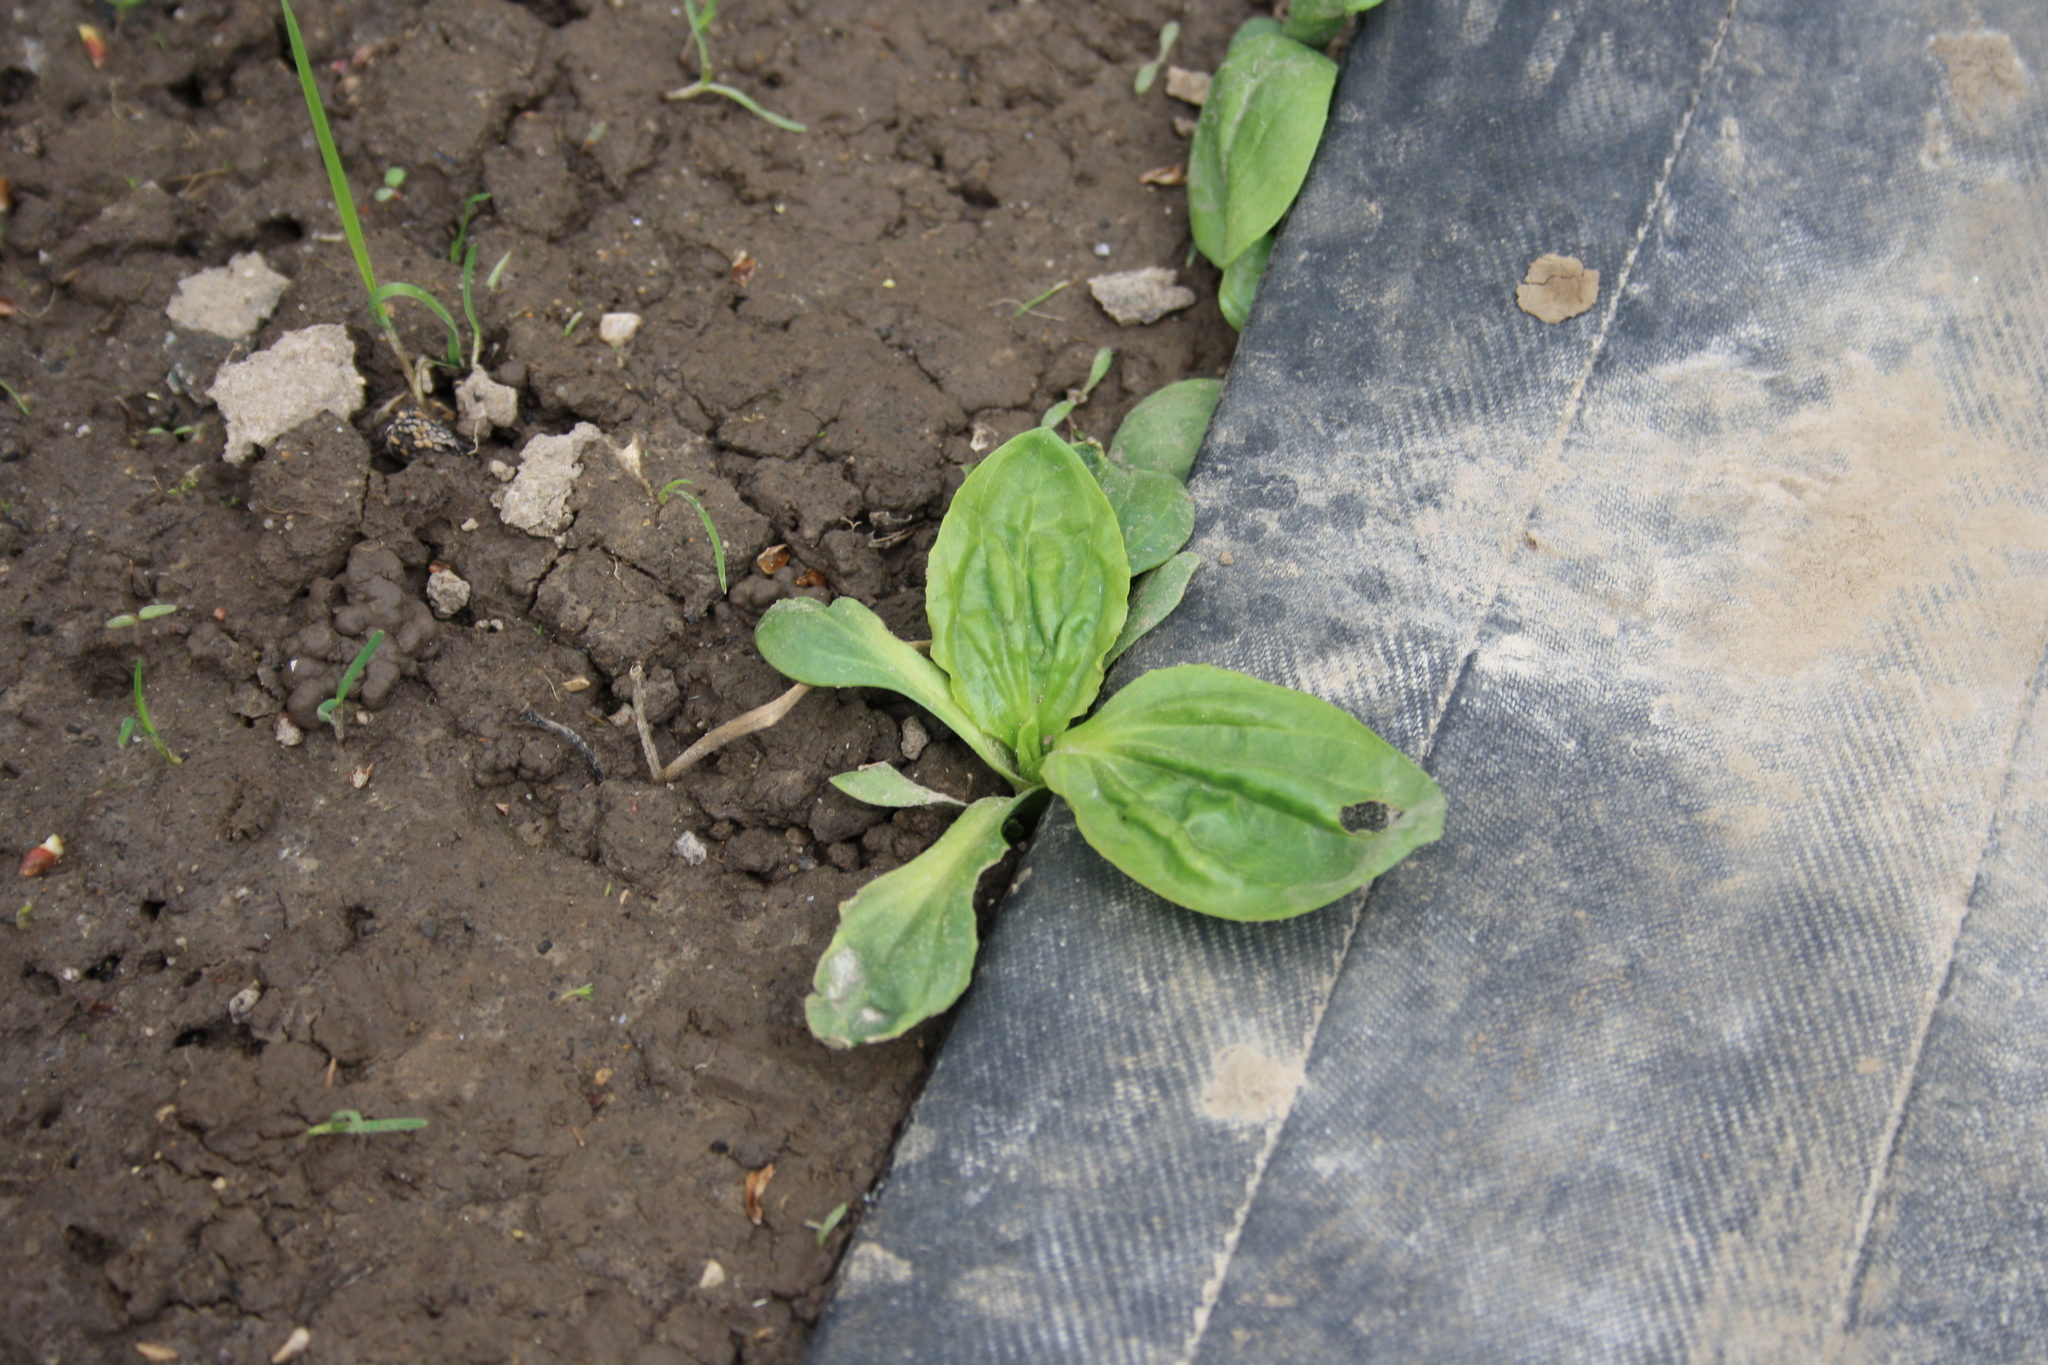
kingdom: Plantae
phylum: Tracheophyta
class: Magnoliopsida
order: Lamiales
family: Plantaginaceae
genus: Plantago
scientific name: Plantago major
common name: Common plantain
